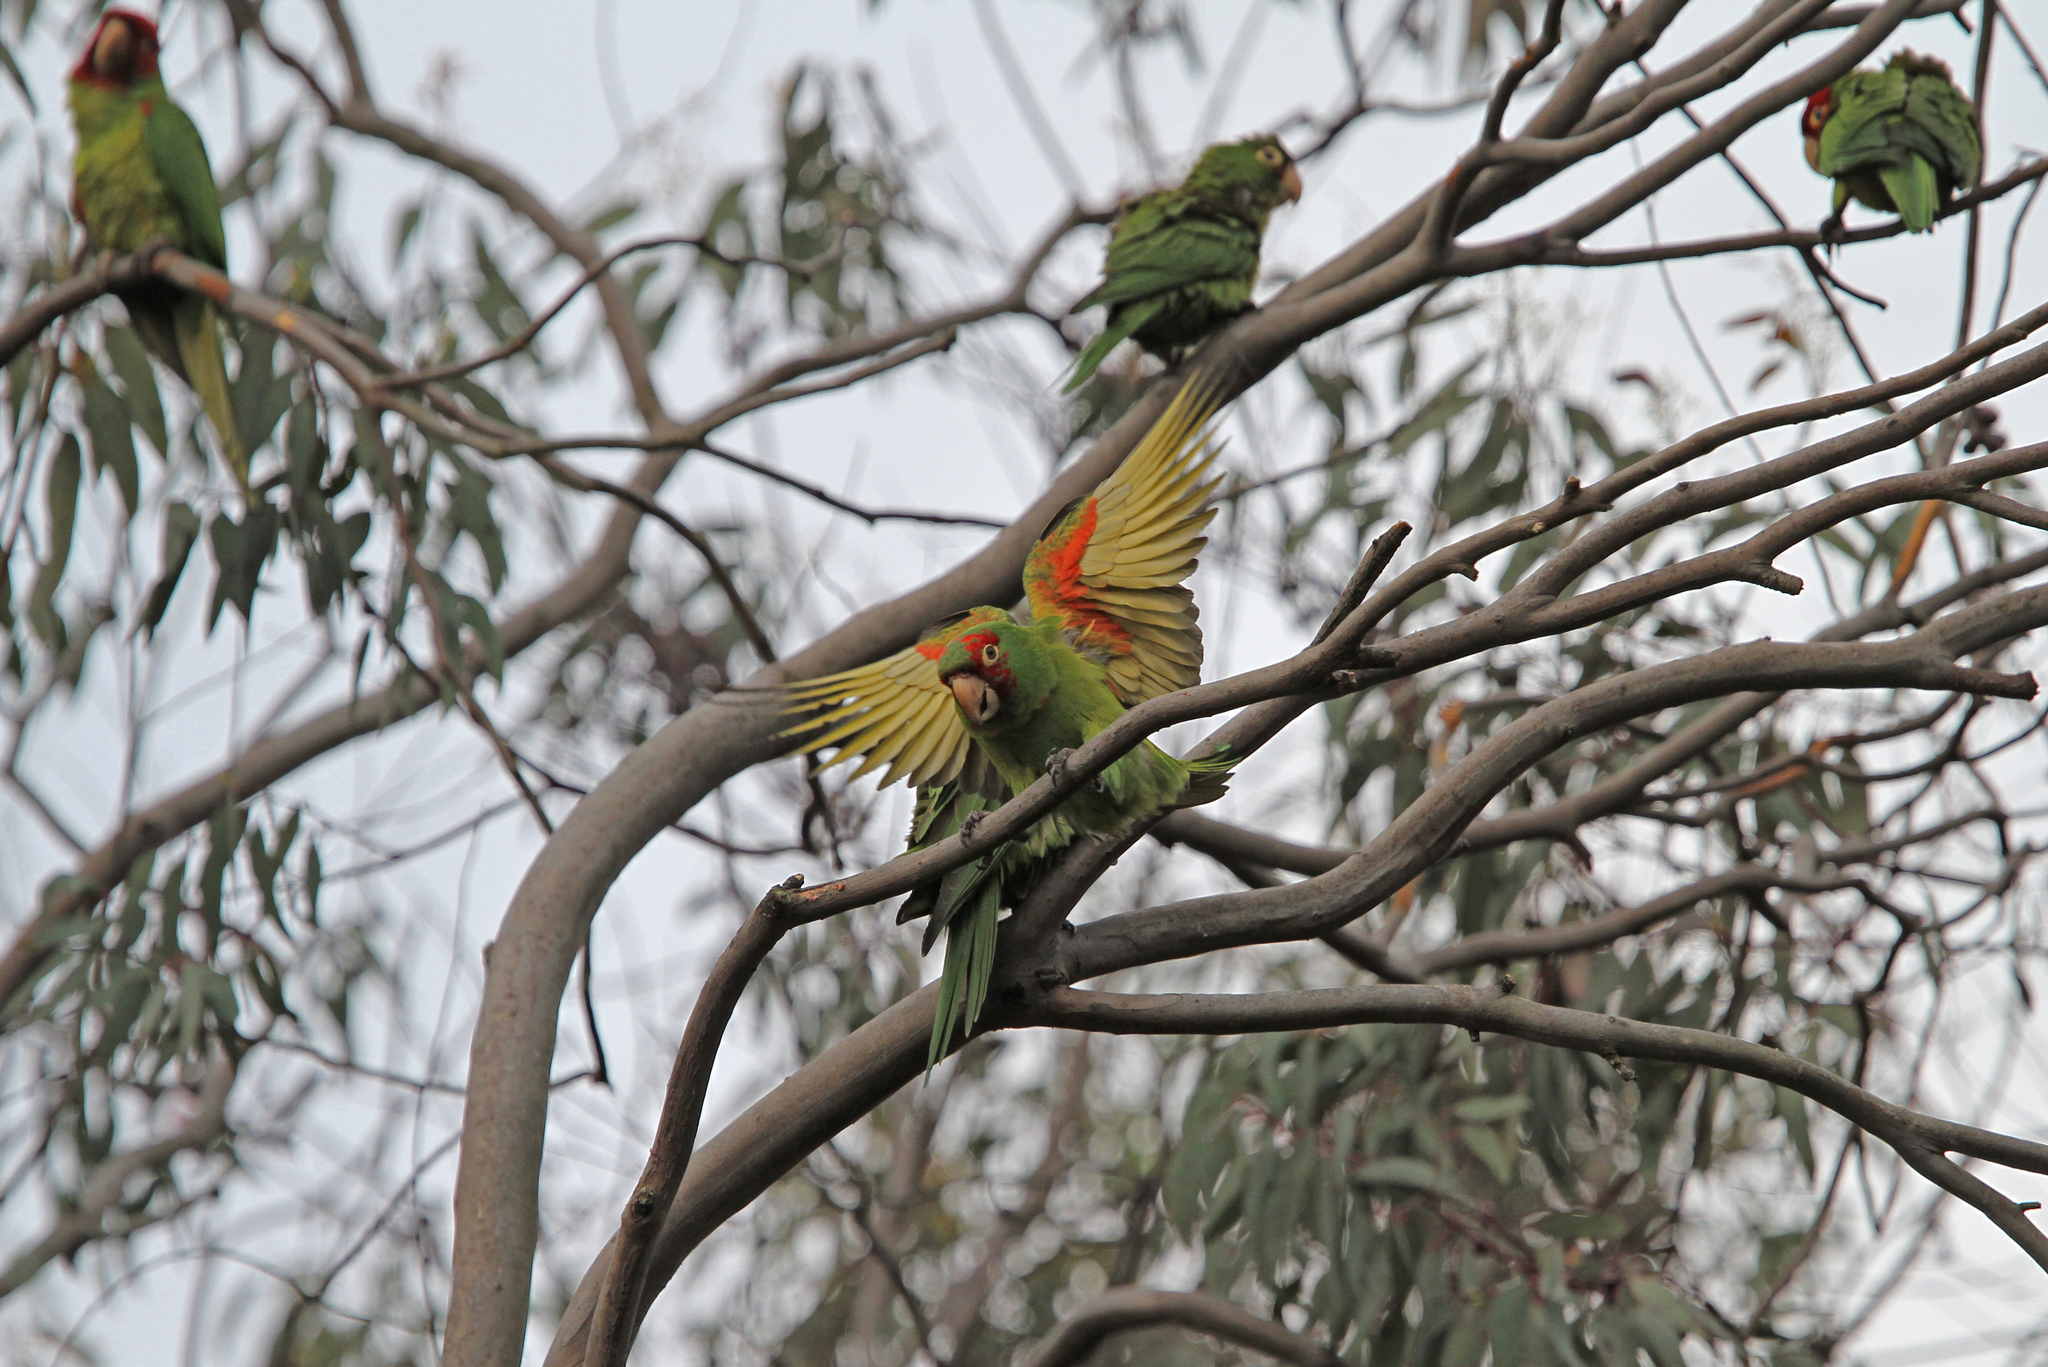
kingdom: Animalia
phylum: Chordata
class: Aves
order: Psittaciformes
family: Psittacidae
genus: Aratinga
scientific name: Aratinga erythrogenys
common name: Red-masked parakeet
